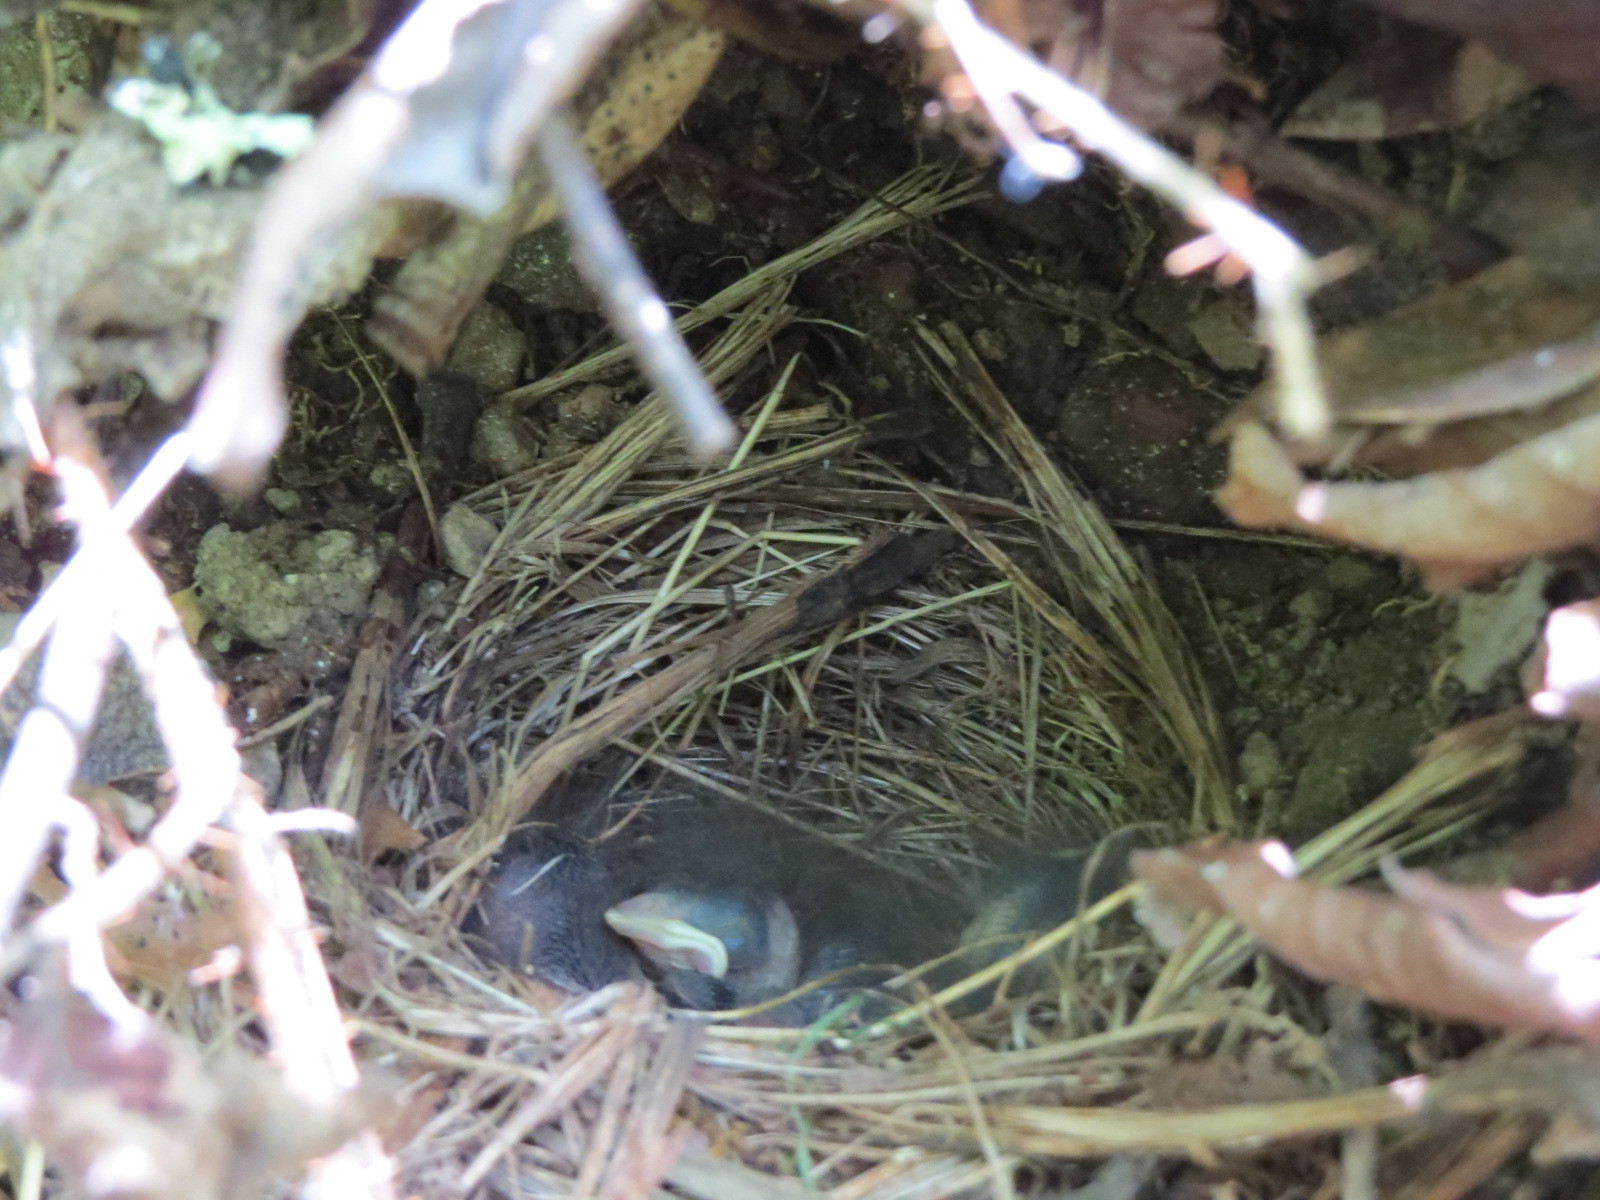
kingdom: Animalia
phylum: Chordata
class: Aves
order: Passeriformes
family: Passerellidae
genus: Junco
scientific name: Junco hyemalis
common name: Dark-eyed junco
